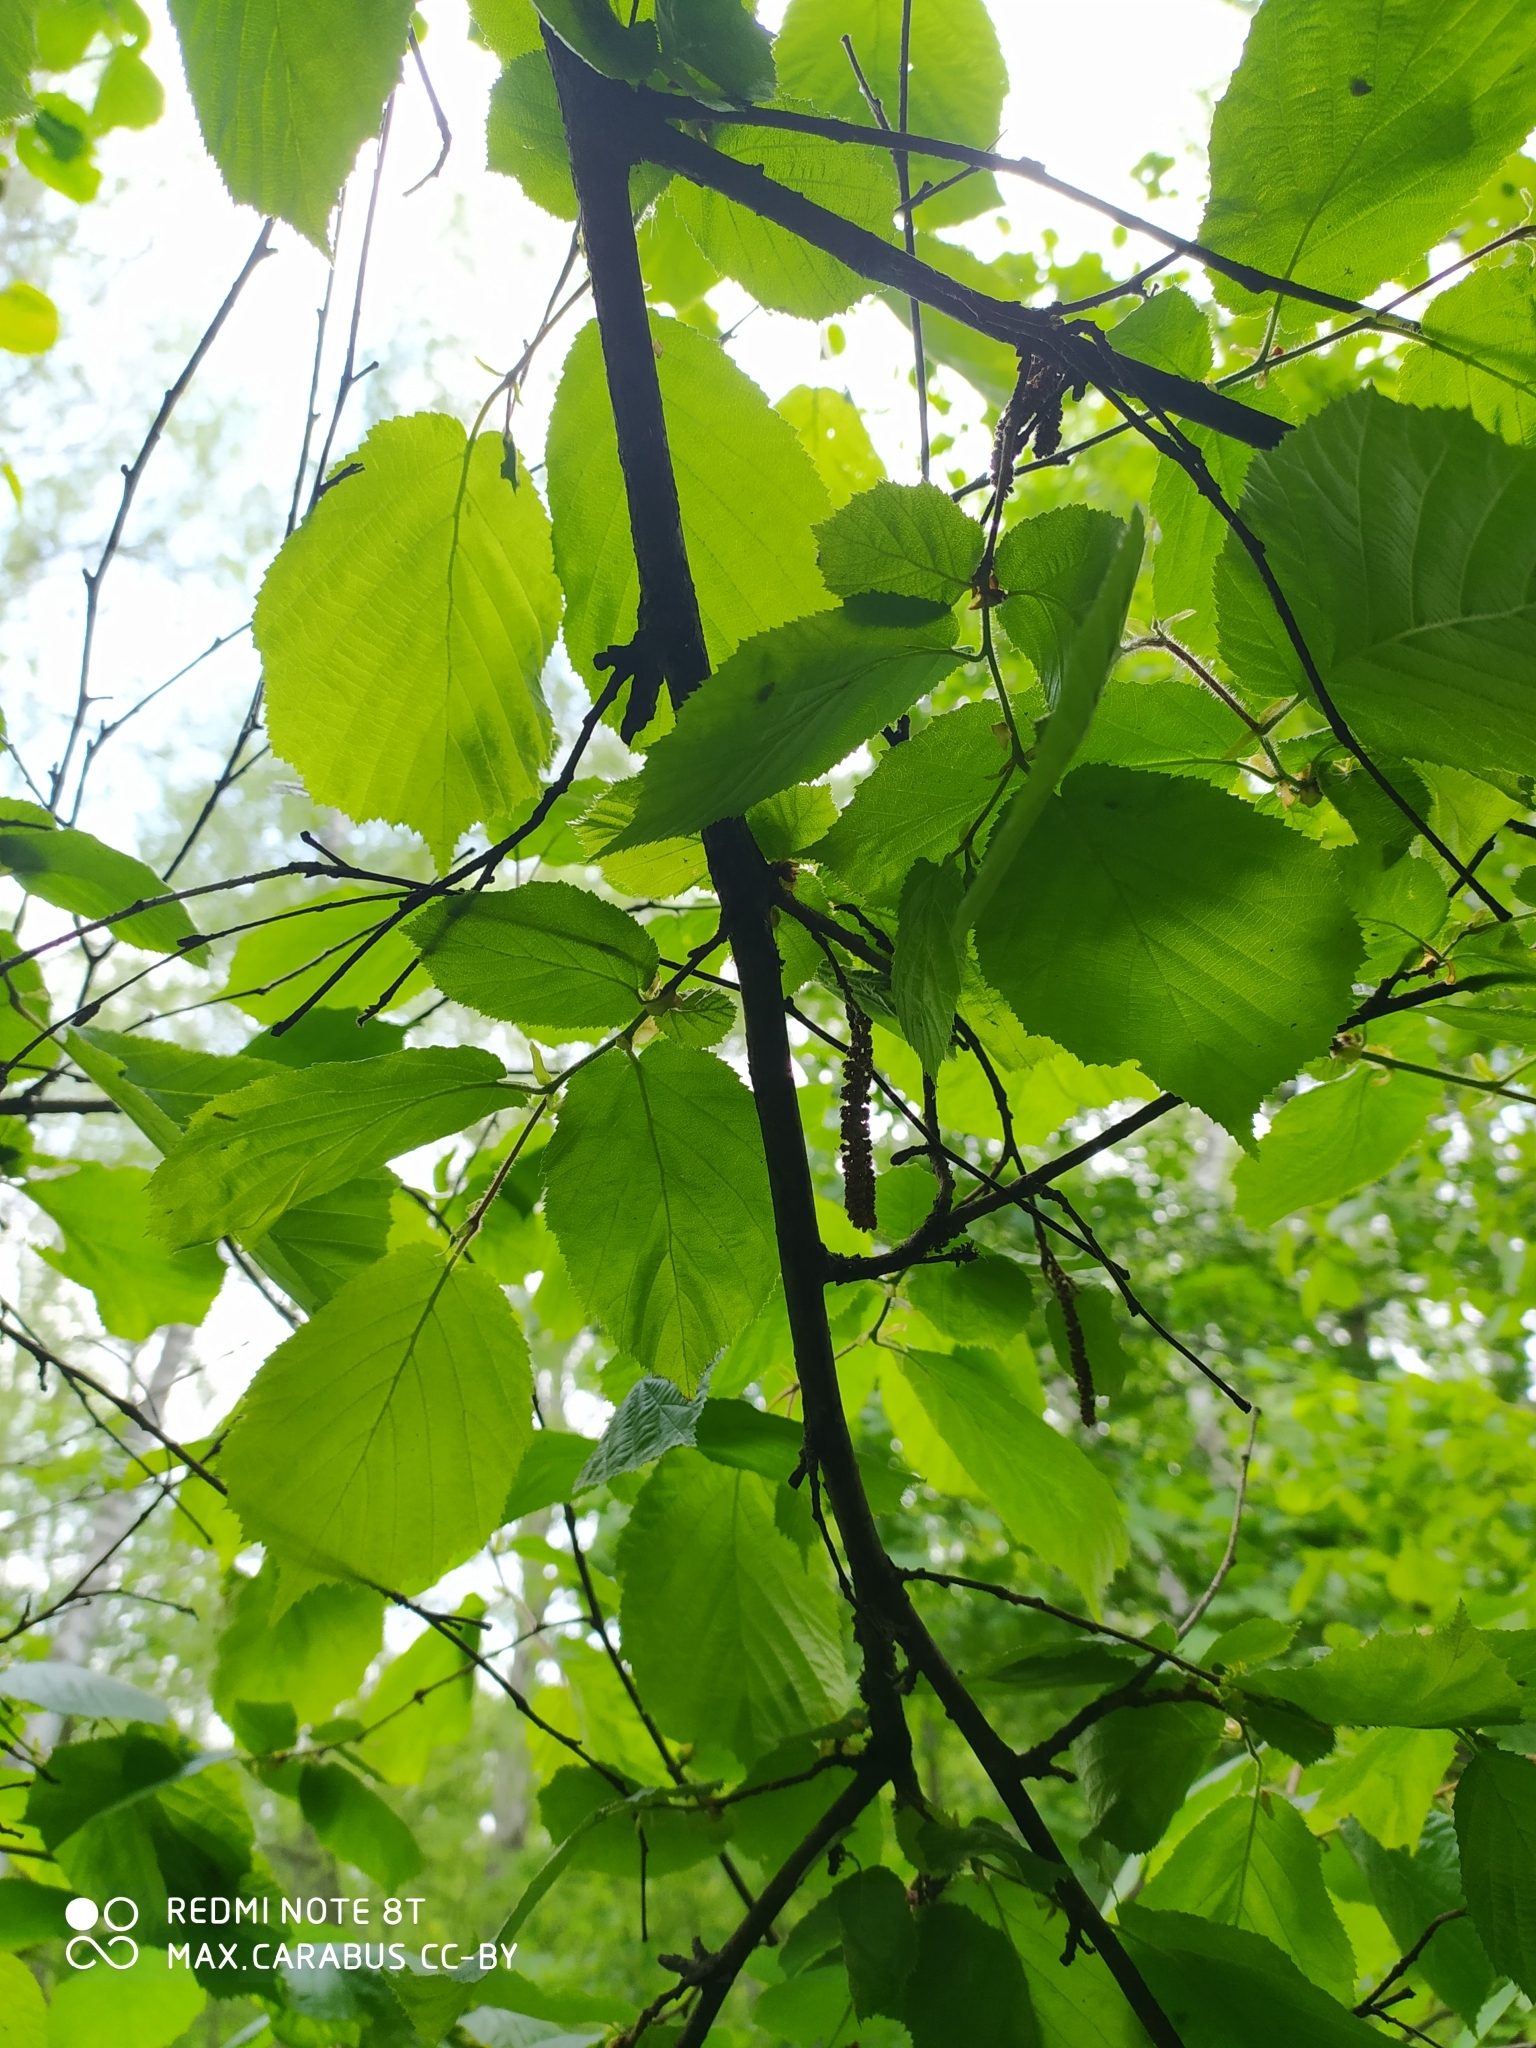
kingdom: Plantae
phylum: Tracheophyta
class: Magnoliopsida
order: Fagales
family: Betulaceae
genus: Corylus
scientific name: Corylus avellana
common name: European hazel
